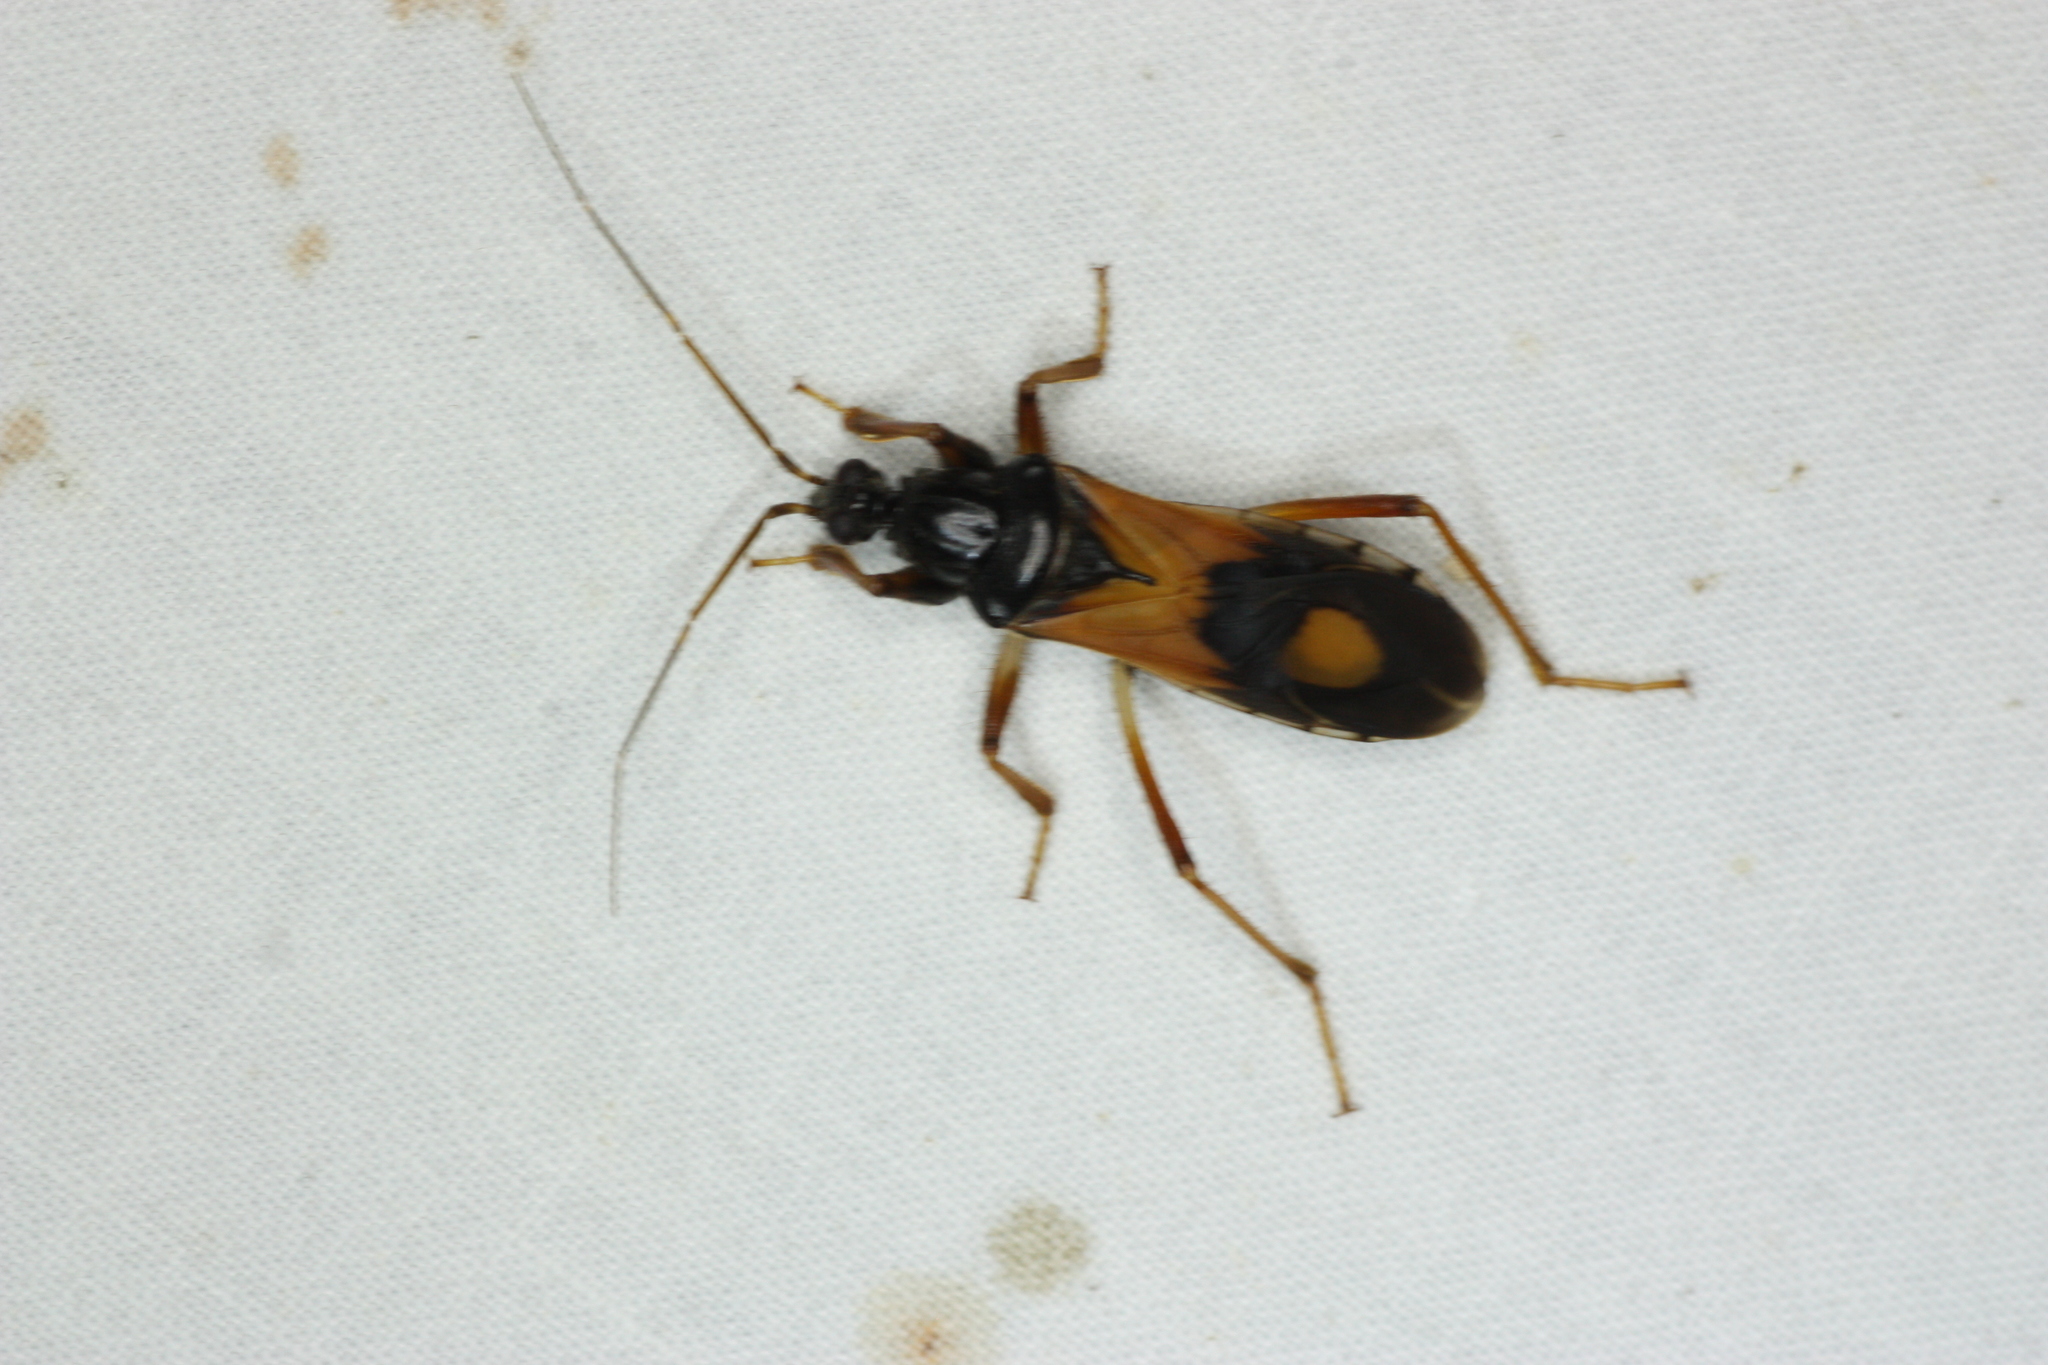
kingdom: Animalia
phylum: Arthropoda
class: Insecta
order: Hemiptera
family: Reduviidae
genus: Rasahus
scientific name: Rasahus biguttatus
